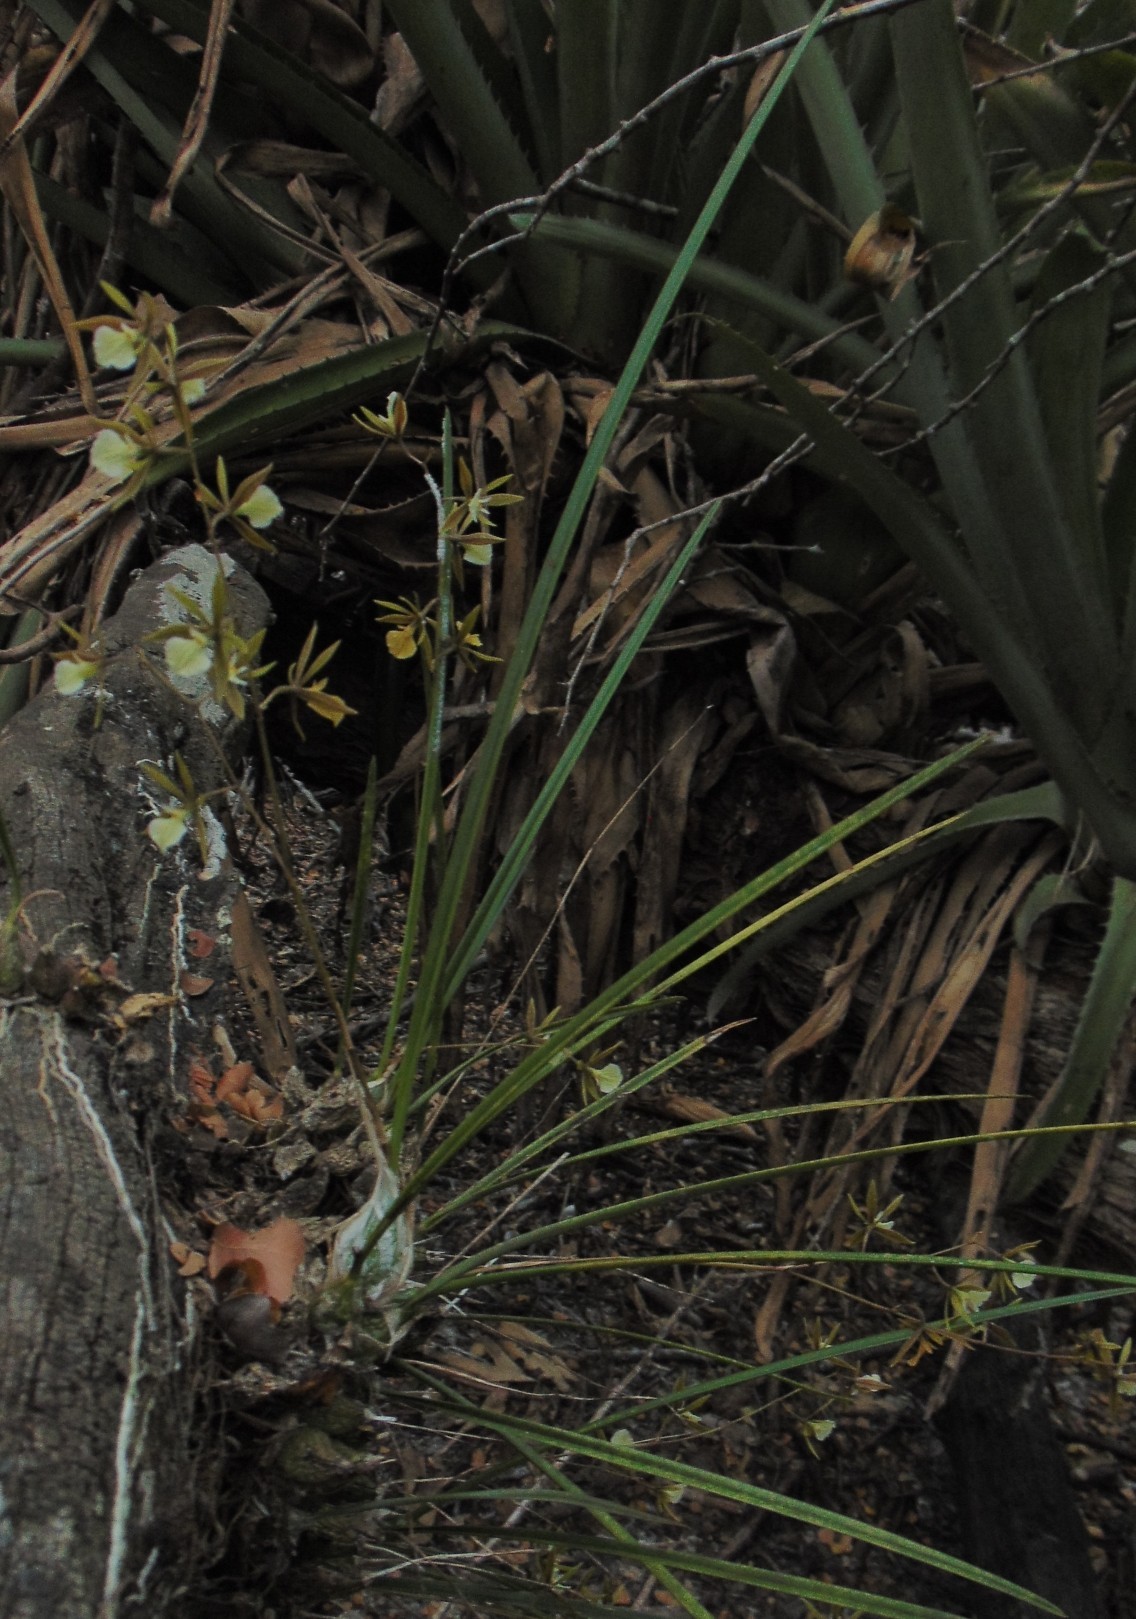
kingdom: Plantae
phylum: Tracheophyta
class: Liliopsida
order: Asparagales
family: Orchidaceae
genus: Encyclia
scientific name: Encyclia nematocaulon
